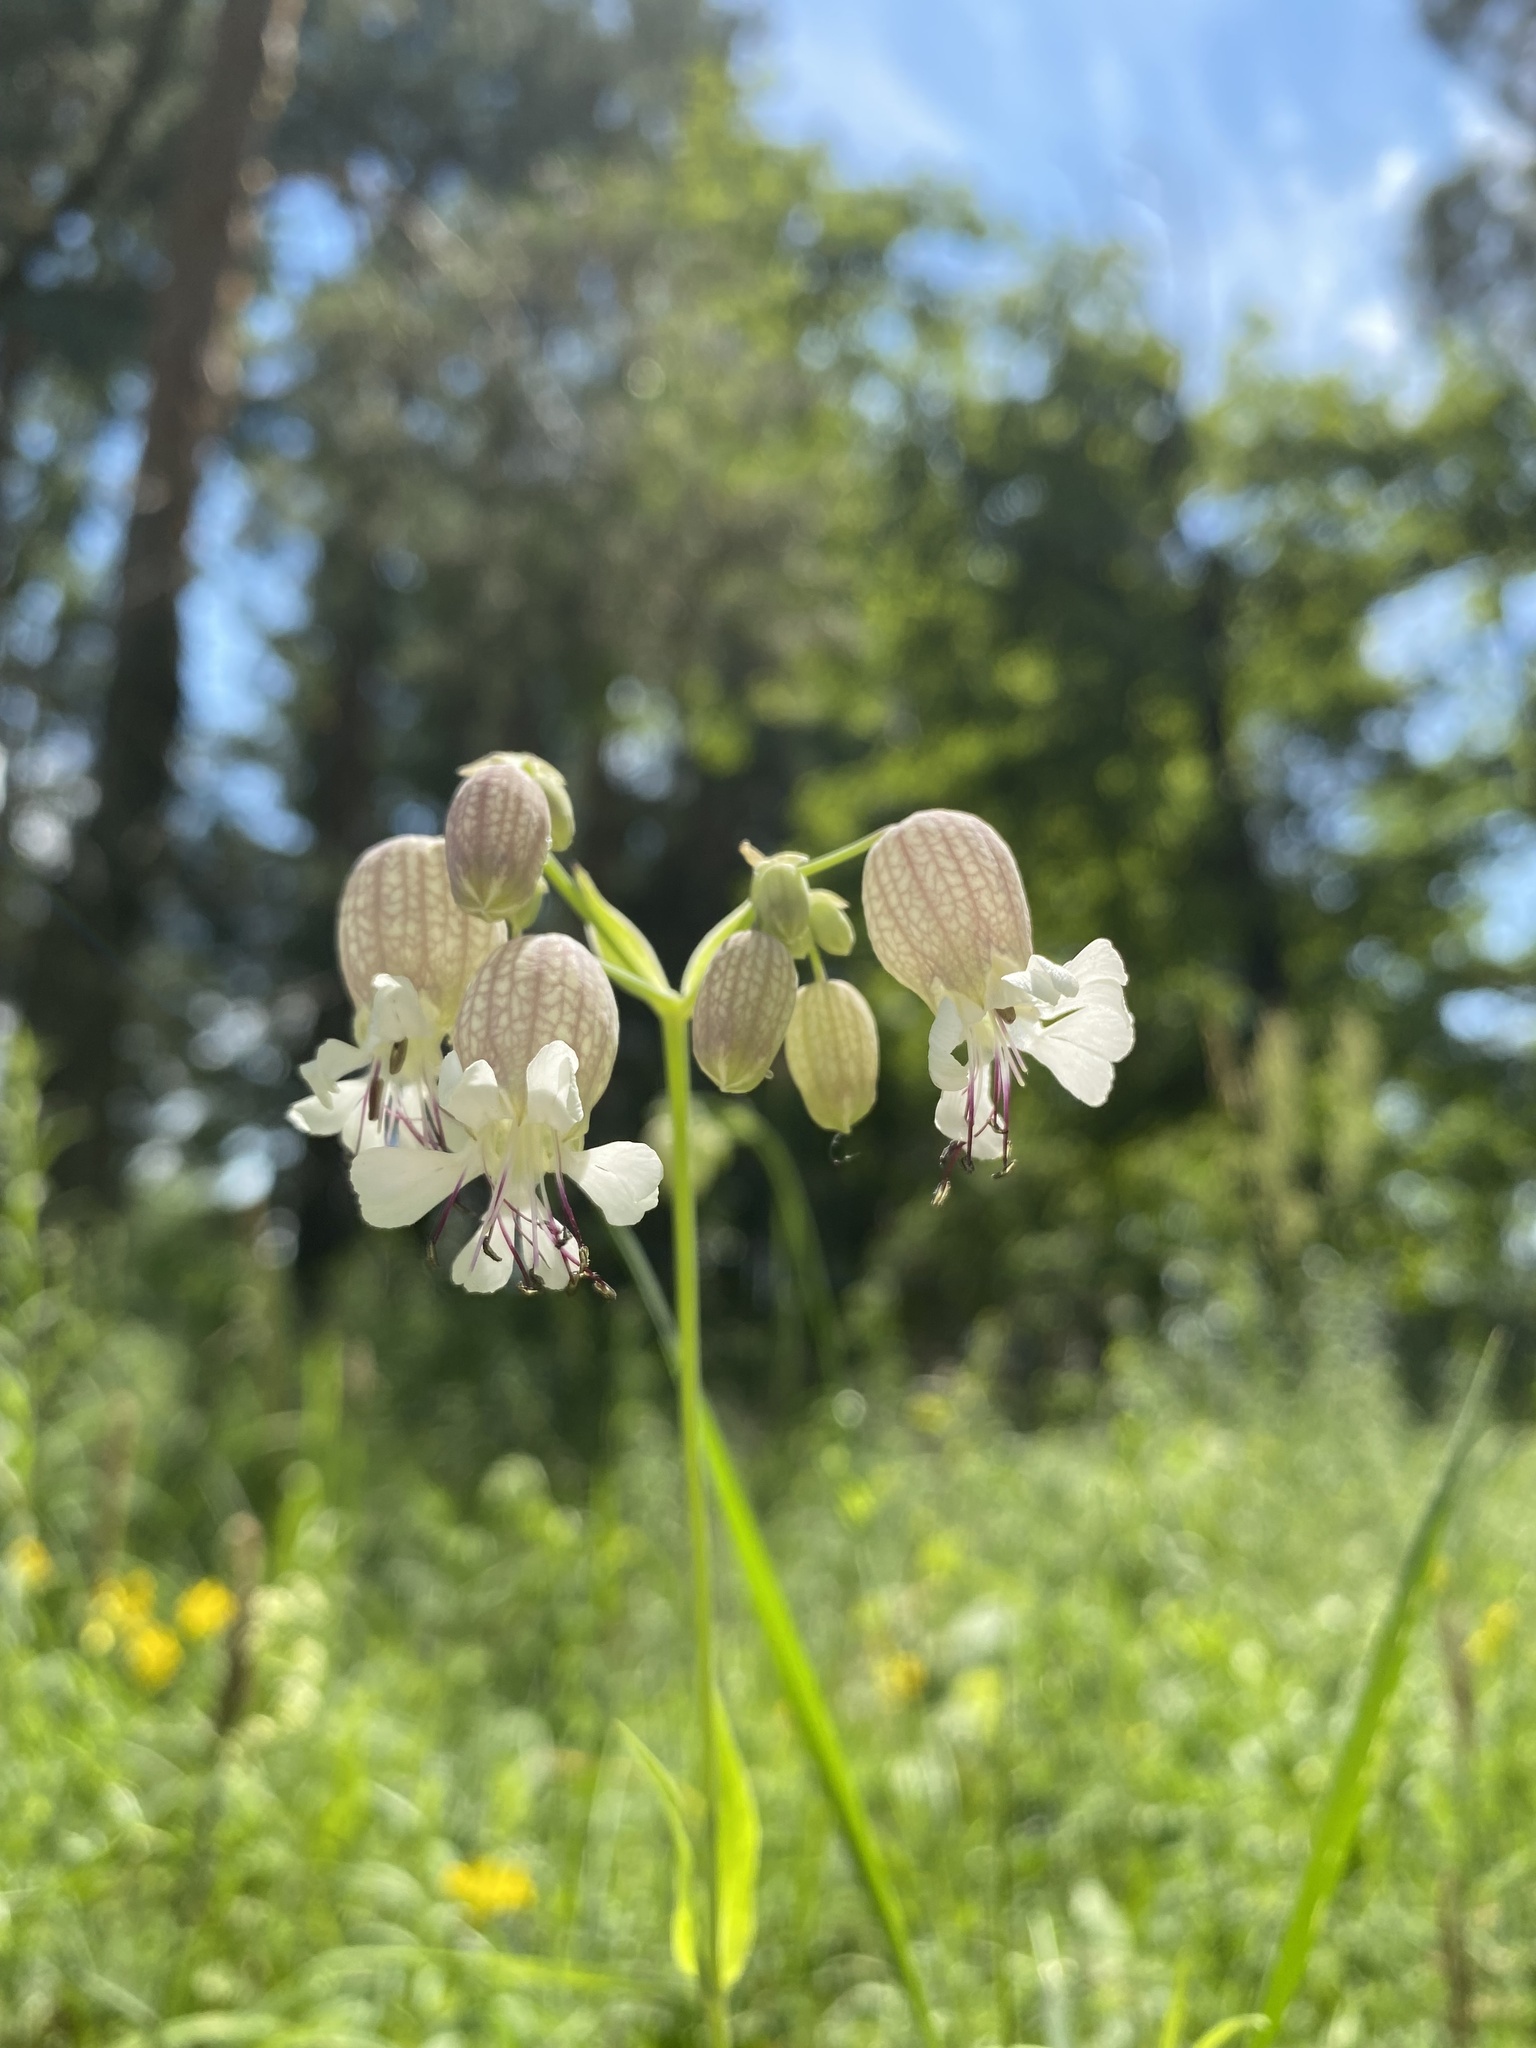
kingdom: Plantae
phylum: Tracheophyta
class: Magnoliopsida
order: Caryophyllales
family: Caryophyllaceae
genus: Silene
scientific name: Silene vulgaris
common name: Bladder campion
